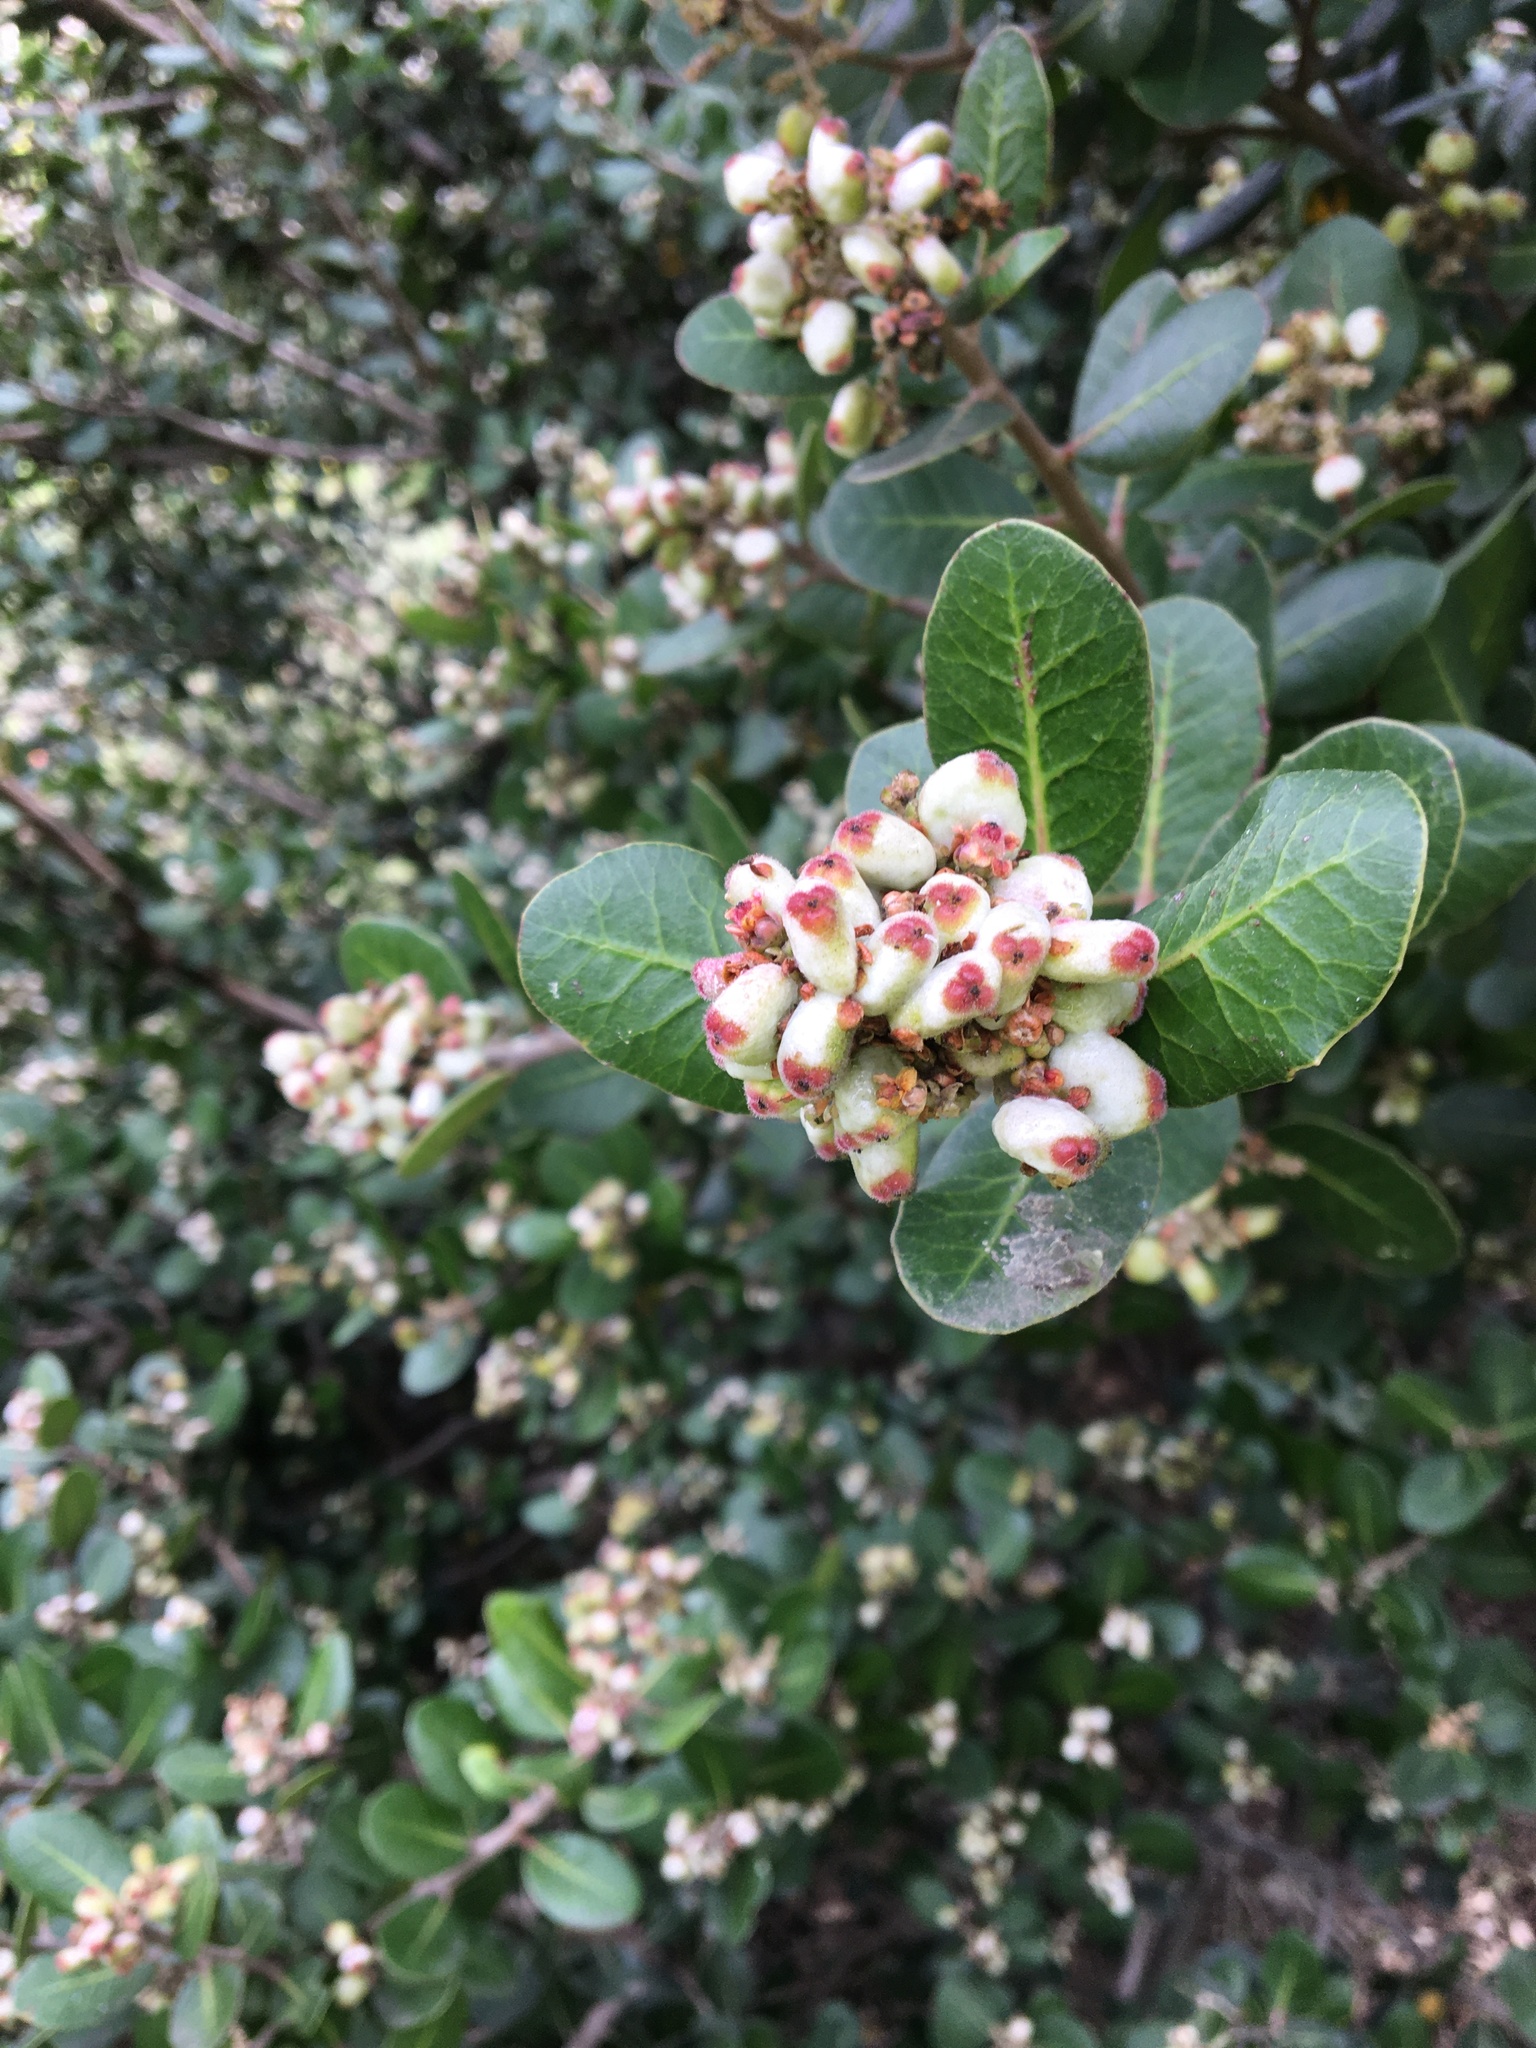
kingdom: Plantae
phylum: Tracheophyta
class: Magnoliopsida
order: Sapindales
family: Anacardiaceae
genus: Rhus
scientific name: Rhus integrifolia
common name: Lemonade sumac
